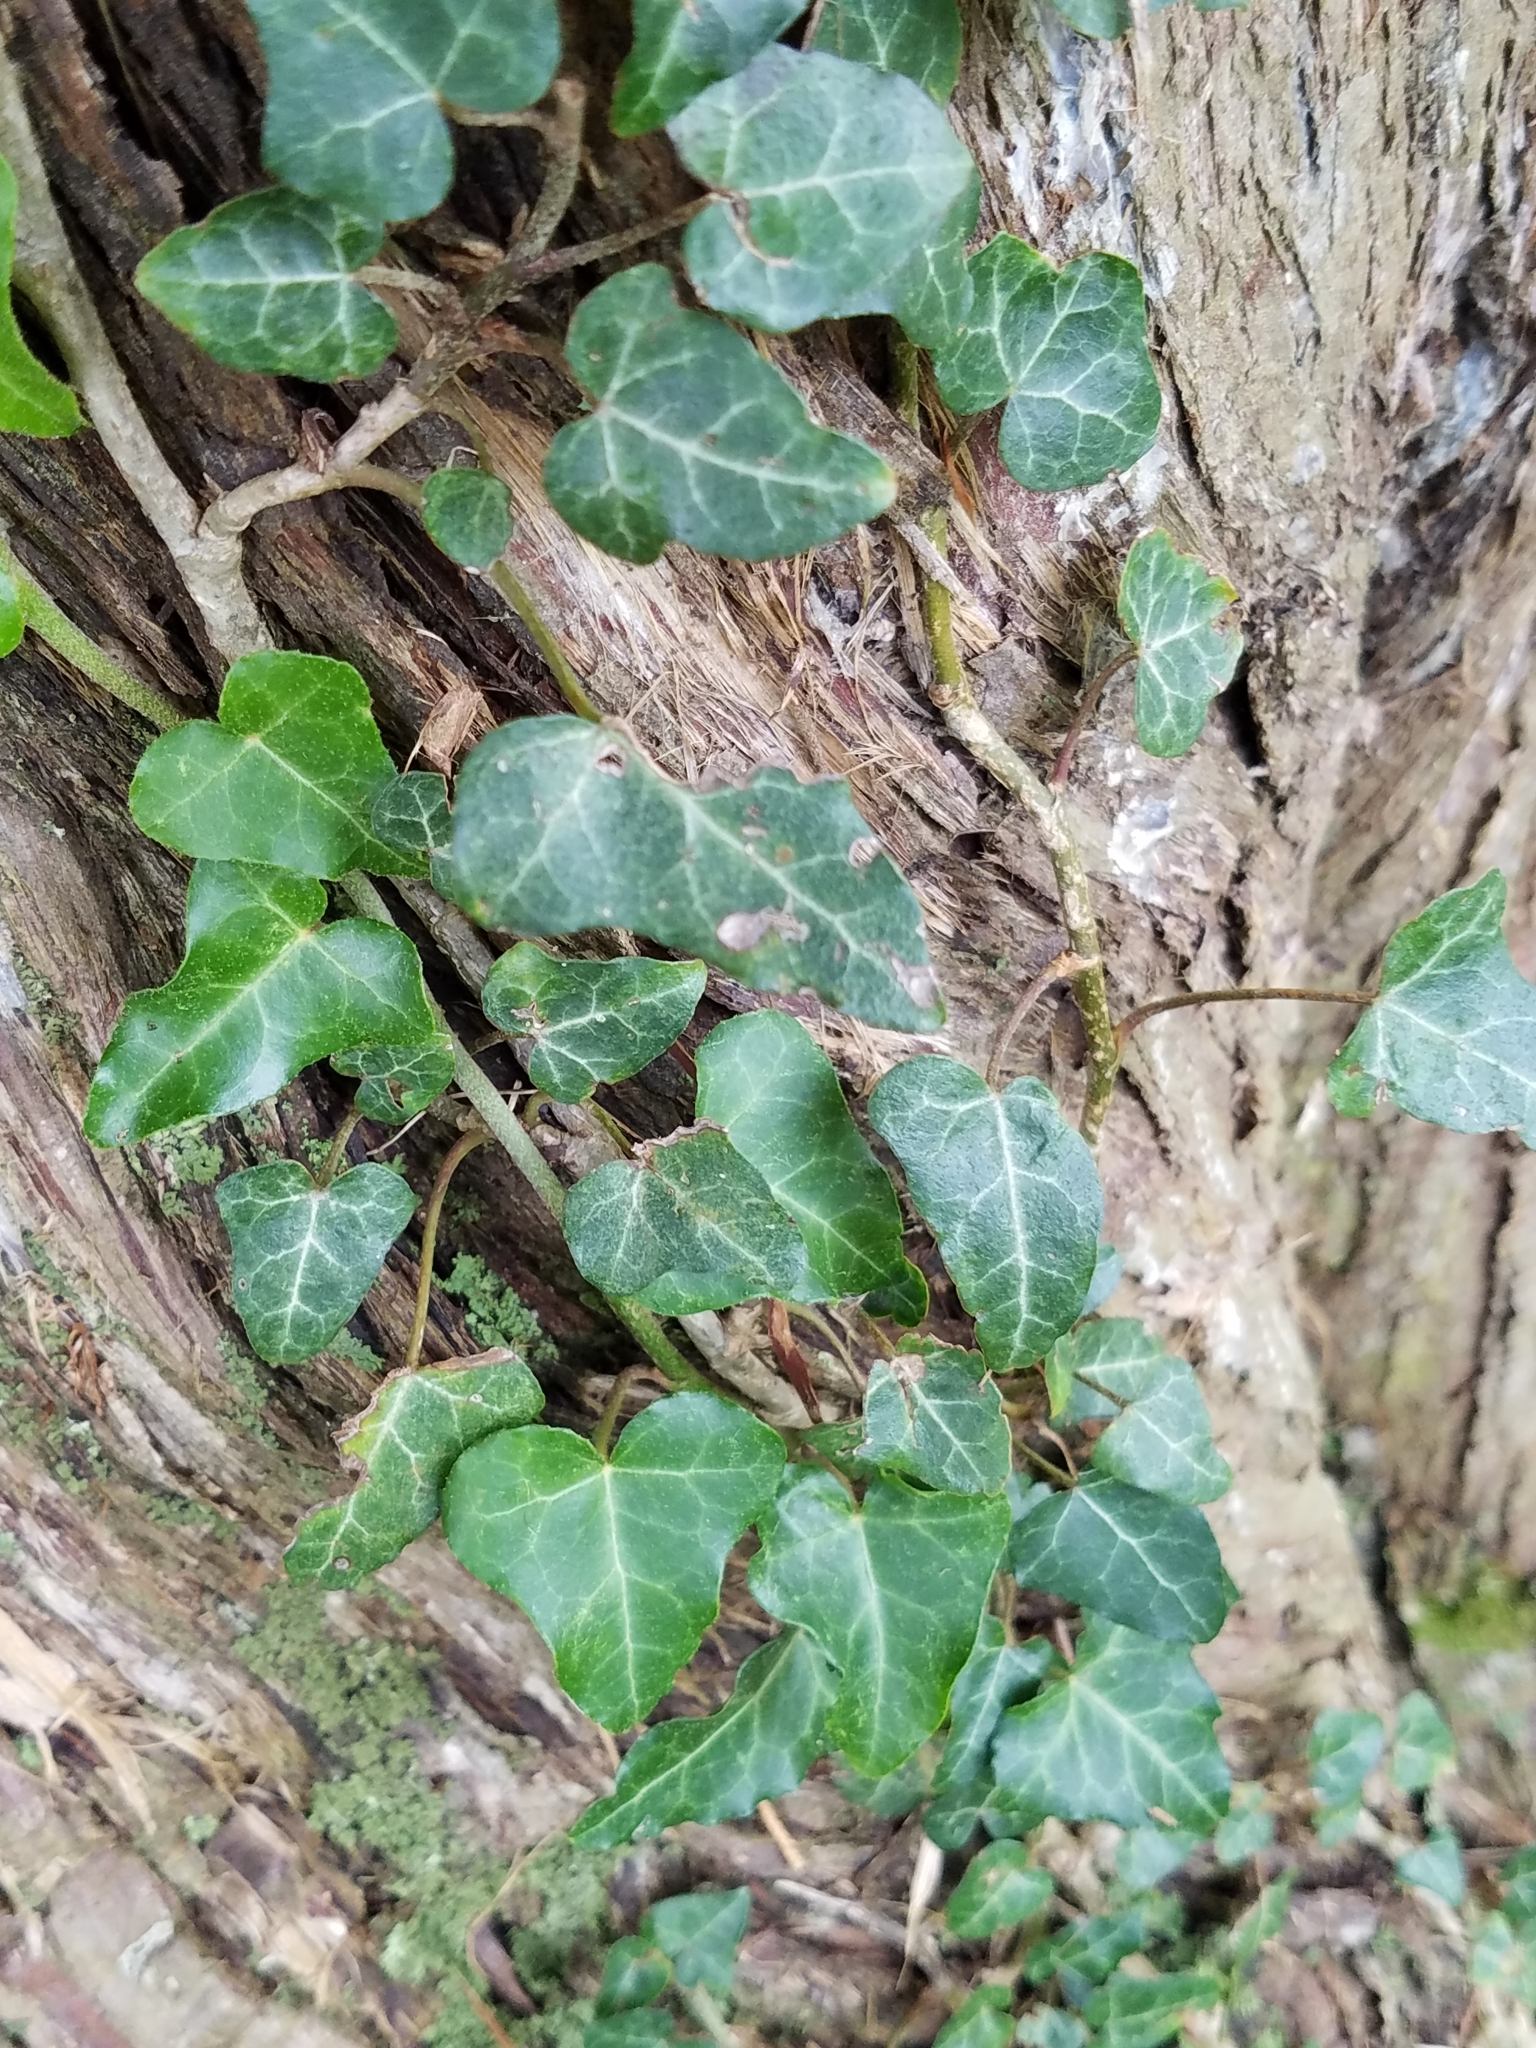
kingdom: Plantae
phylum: Tracheophyta
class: Magnoliopsida
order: Apiales
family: Araliaceae
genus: Hedera
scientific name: Hedera helix
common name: Ivy
